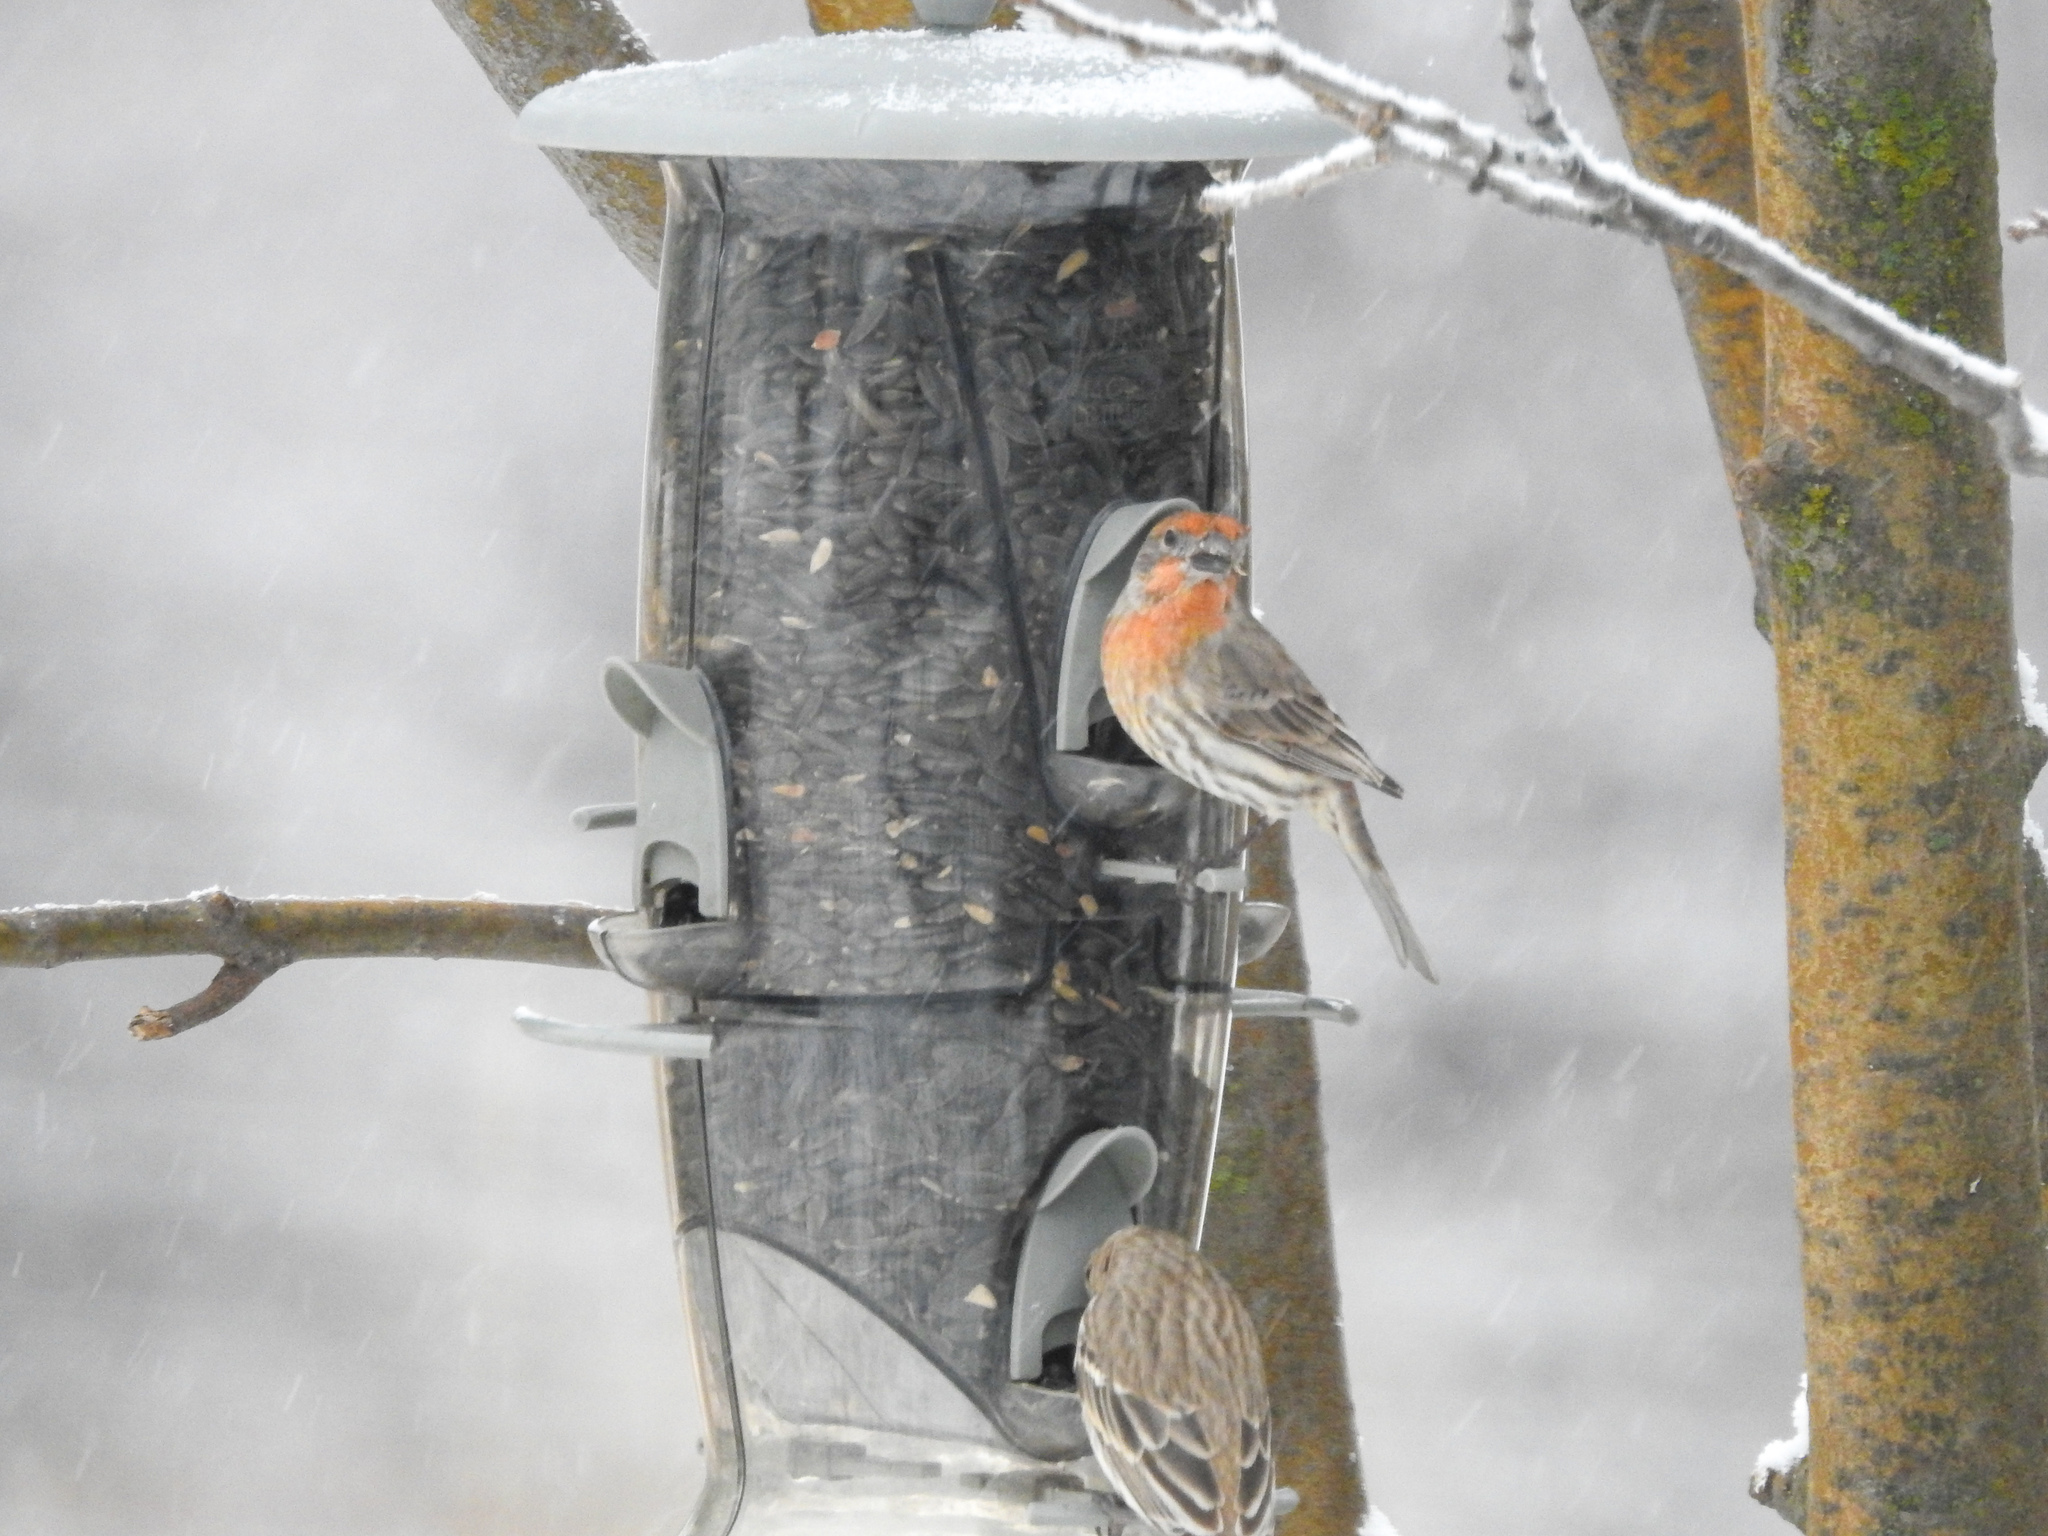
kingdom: Animalia
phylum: Chordata
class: Aves
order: Passeriformes
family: Fringillidae
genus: Haemorhous
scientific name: Haemorhous mexicanus
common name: House finch
